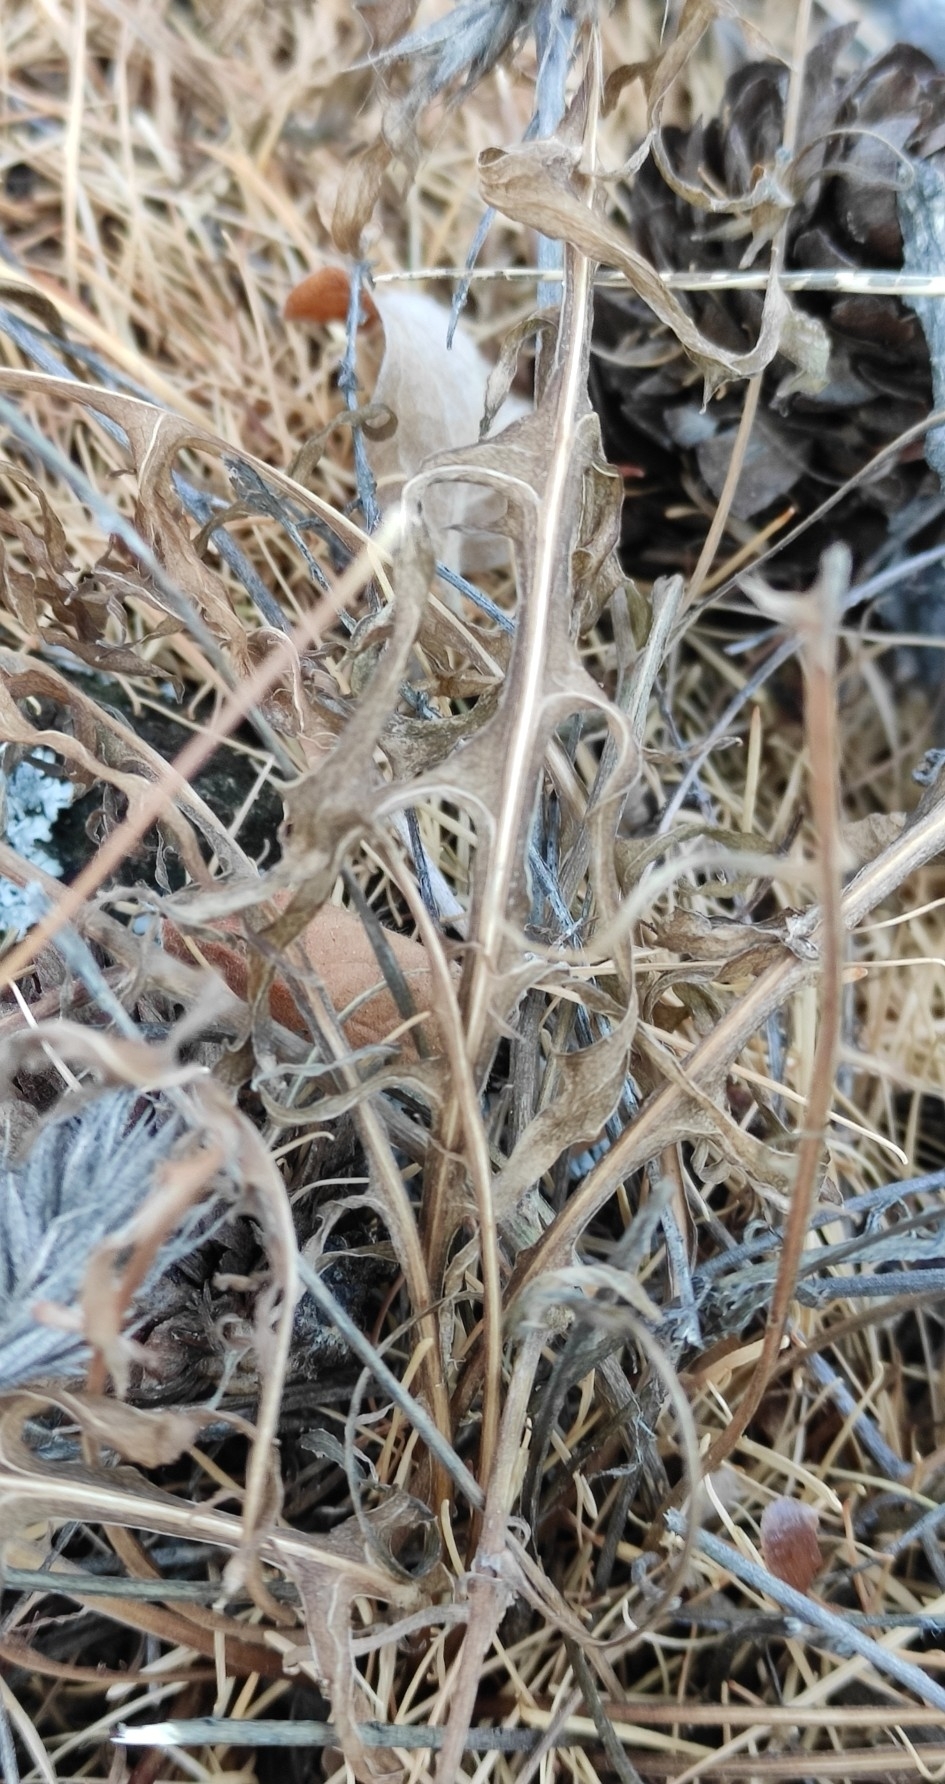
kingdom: Plantae
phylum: Tracheophyta
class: Magnoliopsida
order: Asterales
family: Asteraceae
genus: Crepidiastrum
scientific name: Crepidiastrum tenuifolium
